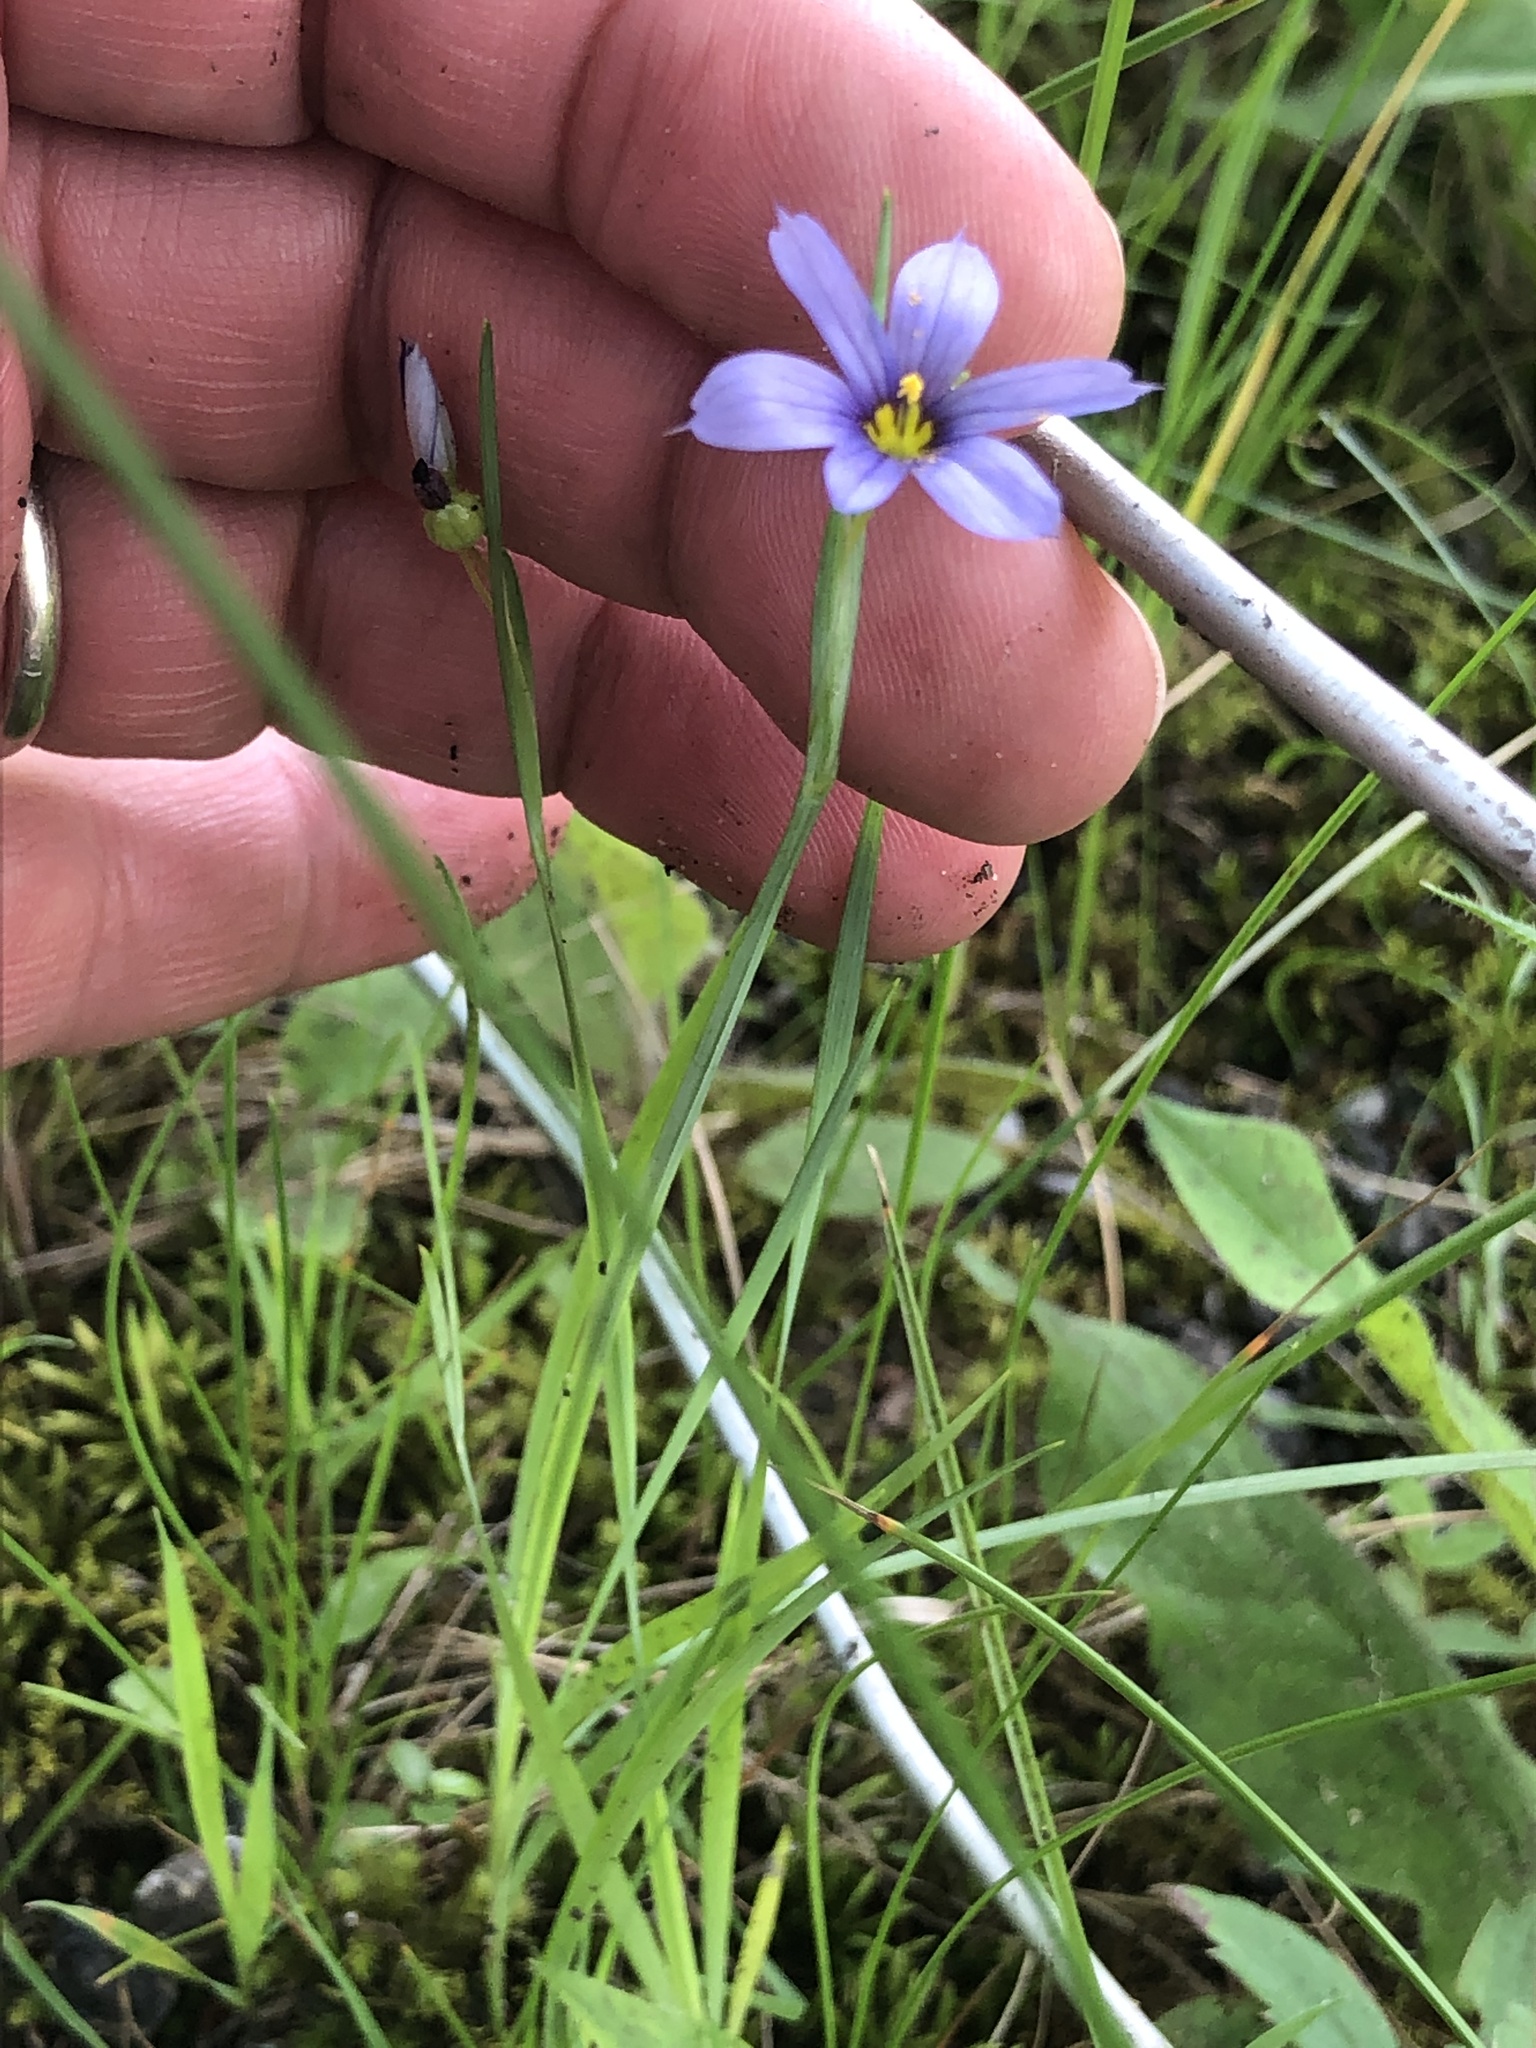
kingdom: Plantae
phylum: Tracheophyta
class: Liliopsida
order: Asparagales
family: Iridaceae
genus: Sisyrinchium
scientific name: Sisyrinchium montanum
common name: American blue-eyed-grass
